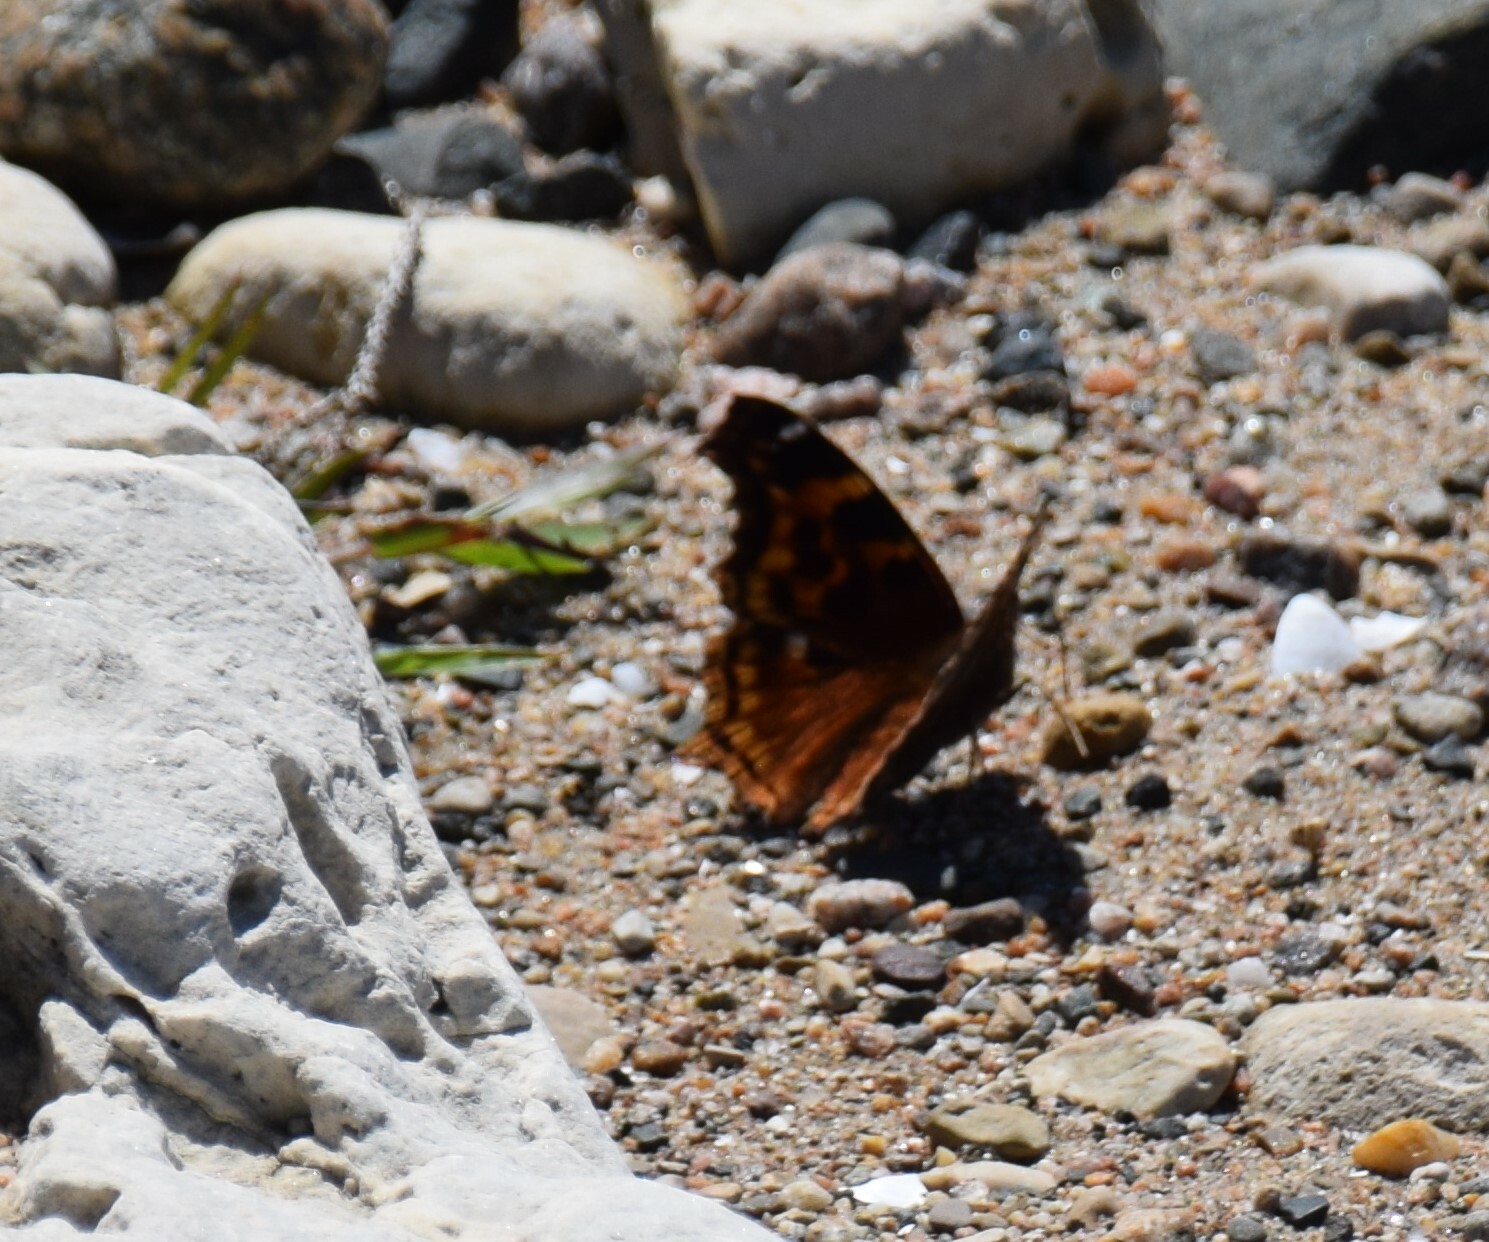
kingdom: Animalia
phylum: Arthropoda
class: Insecta
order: Lepidoptera
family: Nymphalidae
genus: Polygonia
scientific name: Polygonia vaualbum
